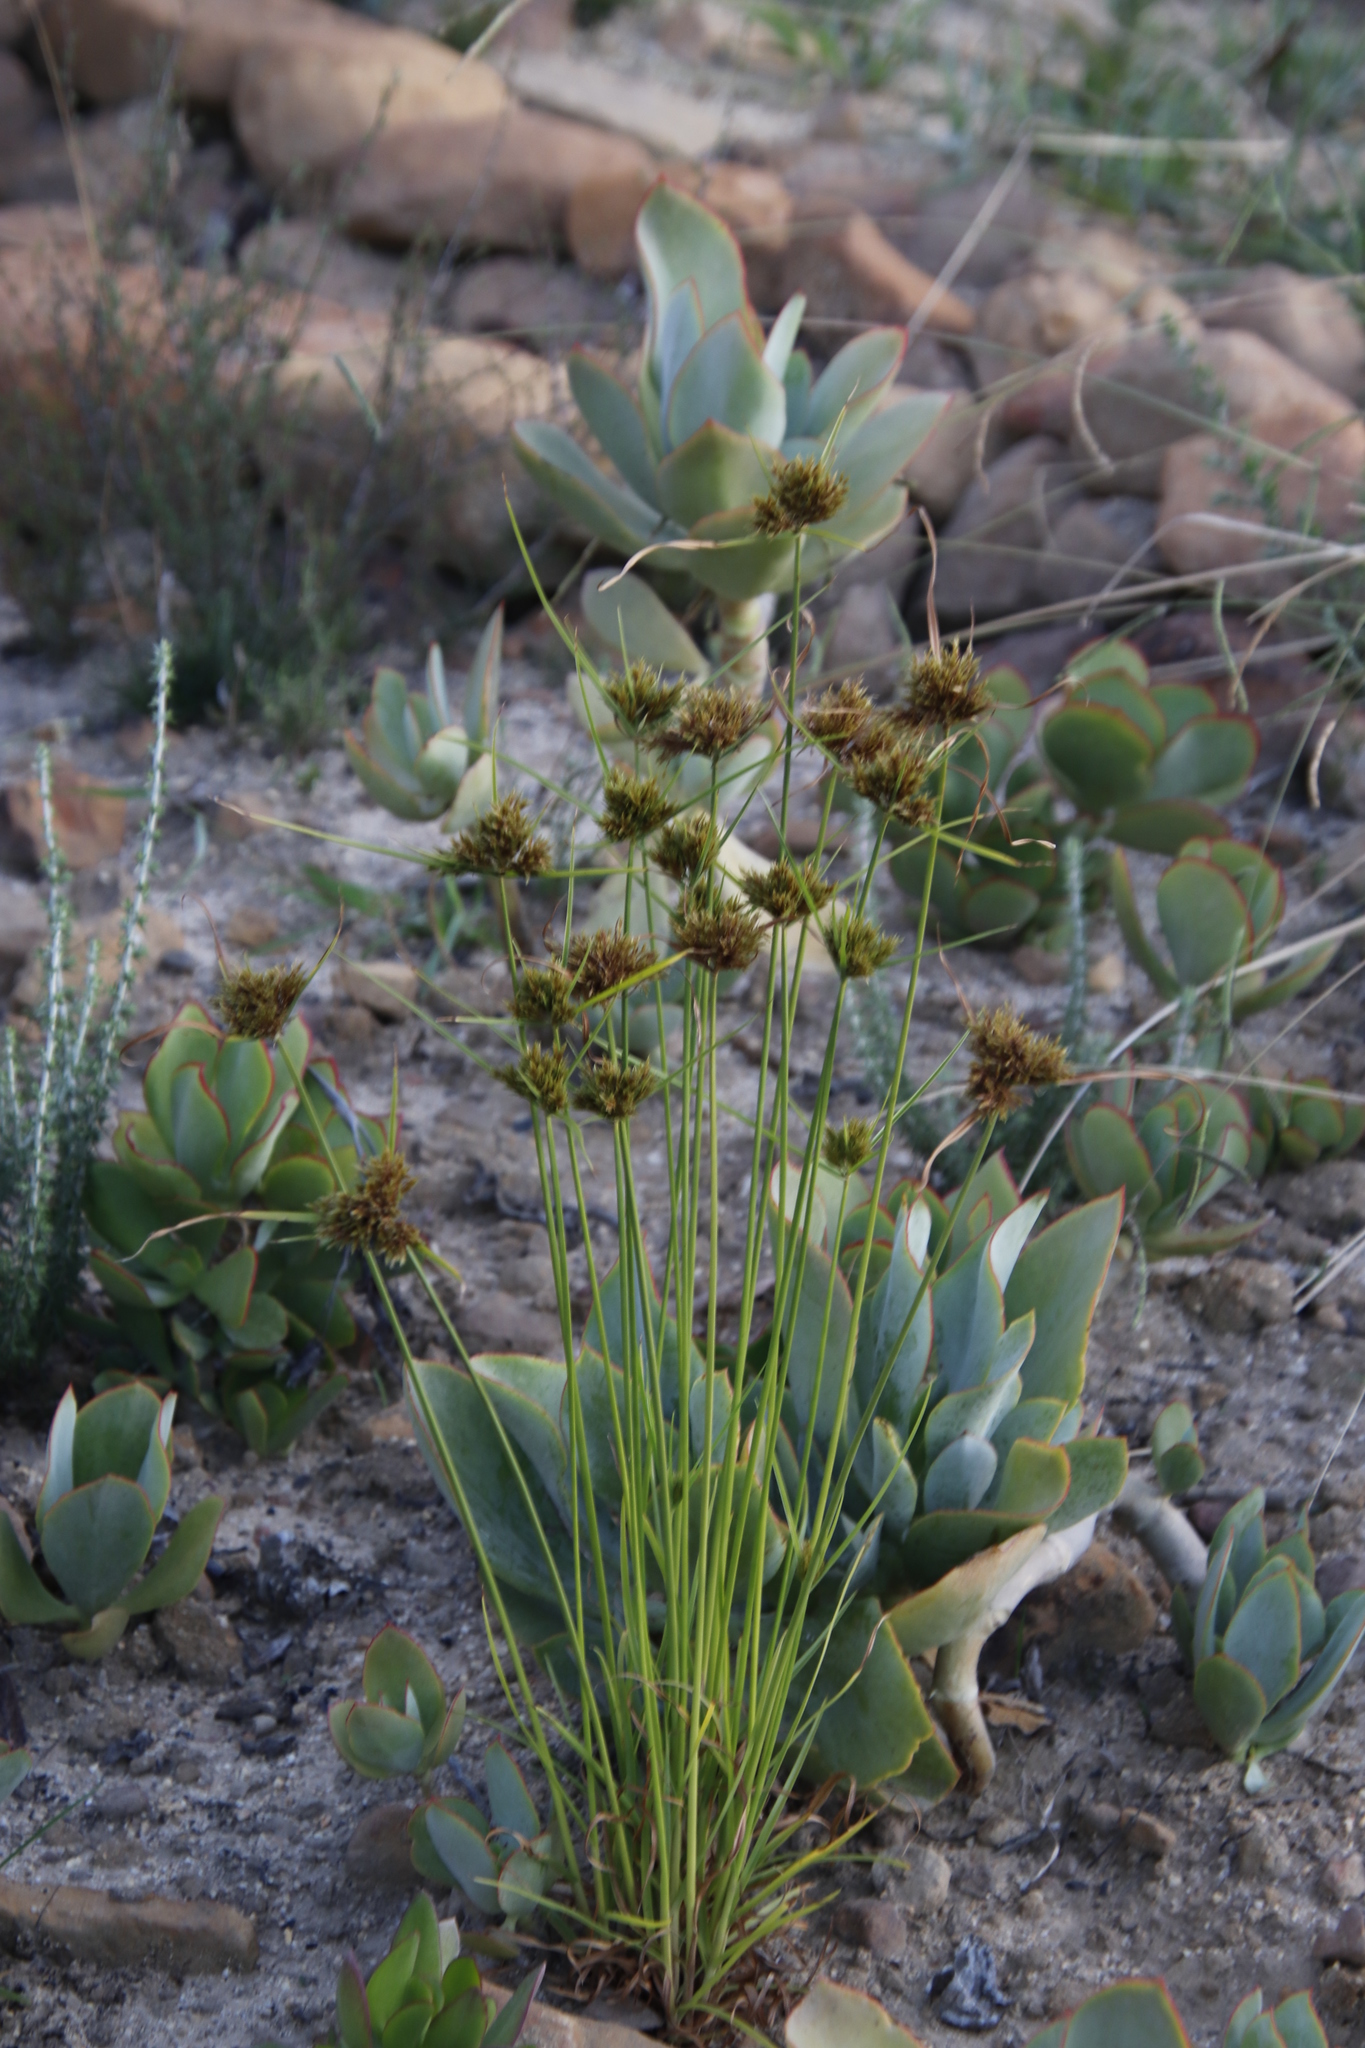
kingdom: Plantae
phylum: Tracheophyta
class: Liliopsida
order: Poales
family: Cyperaceae
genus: Cyperus
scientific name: Cyperus polystachyos
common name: Bunchy flat sedge
